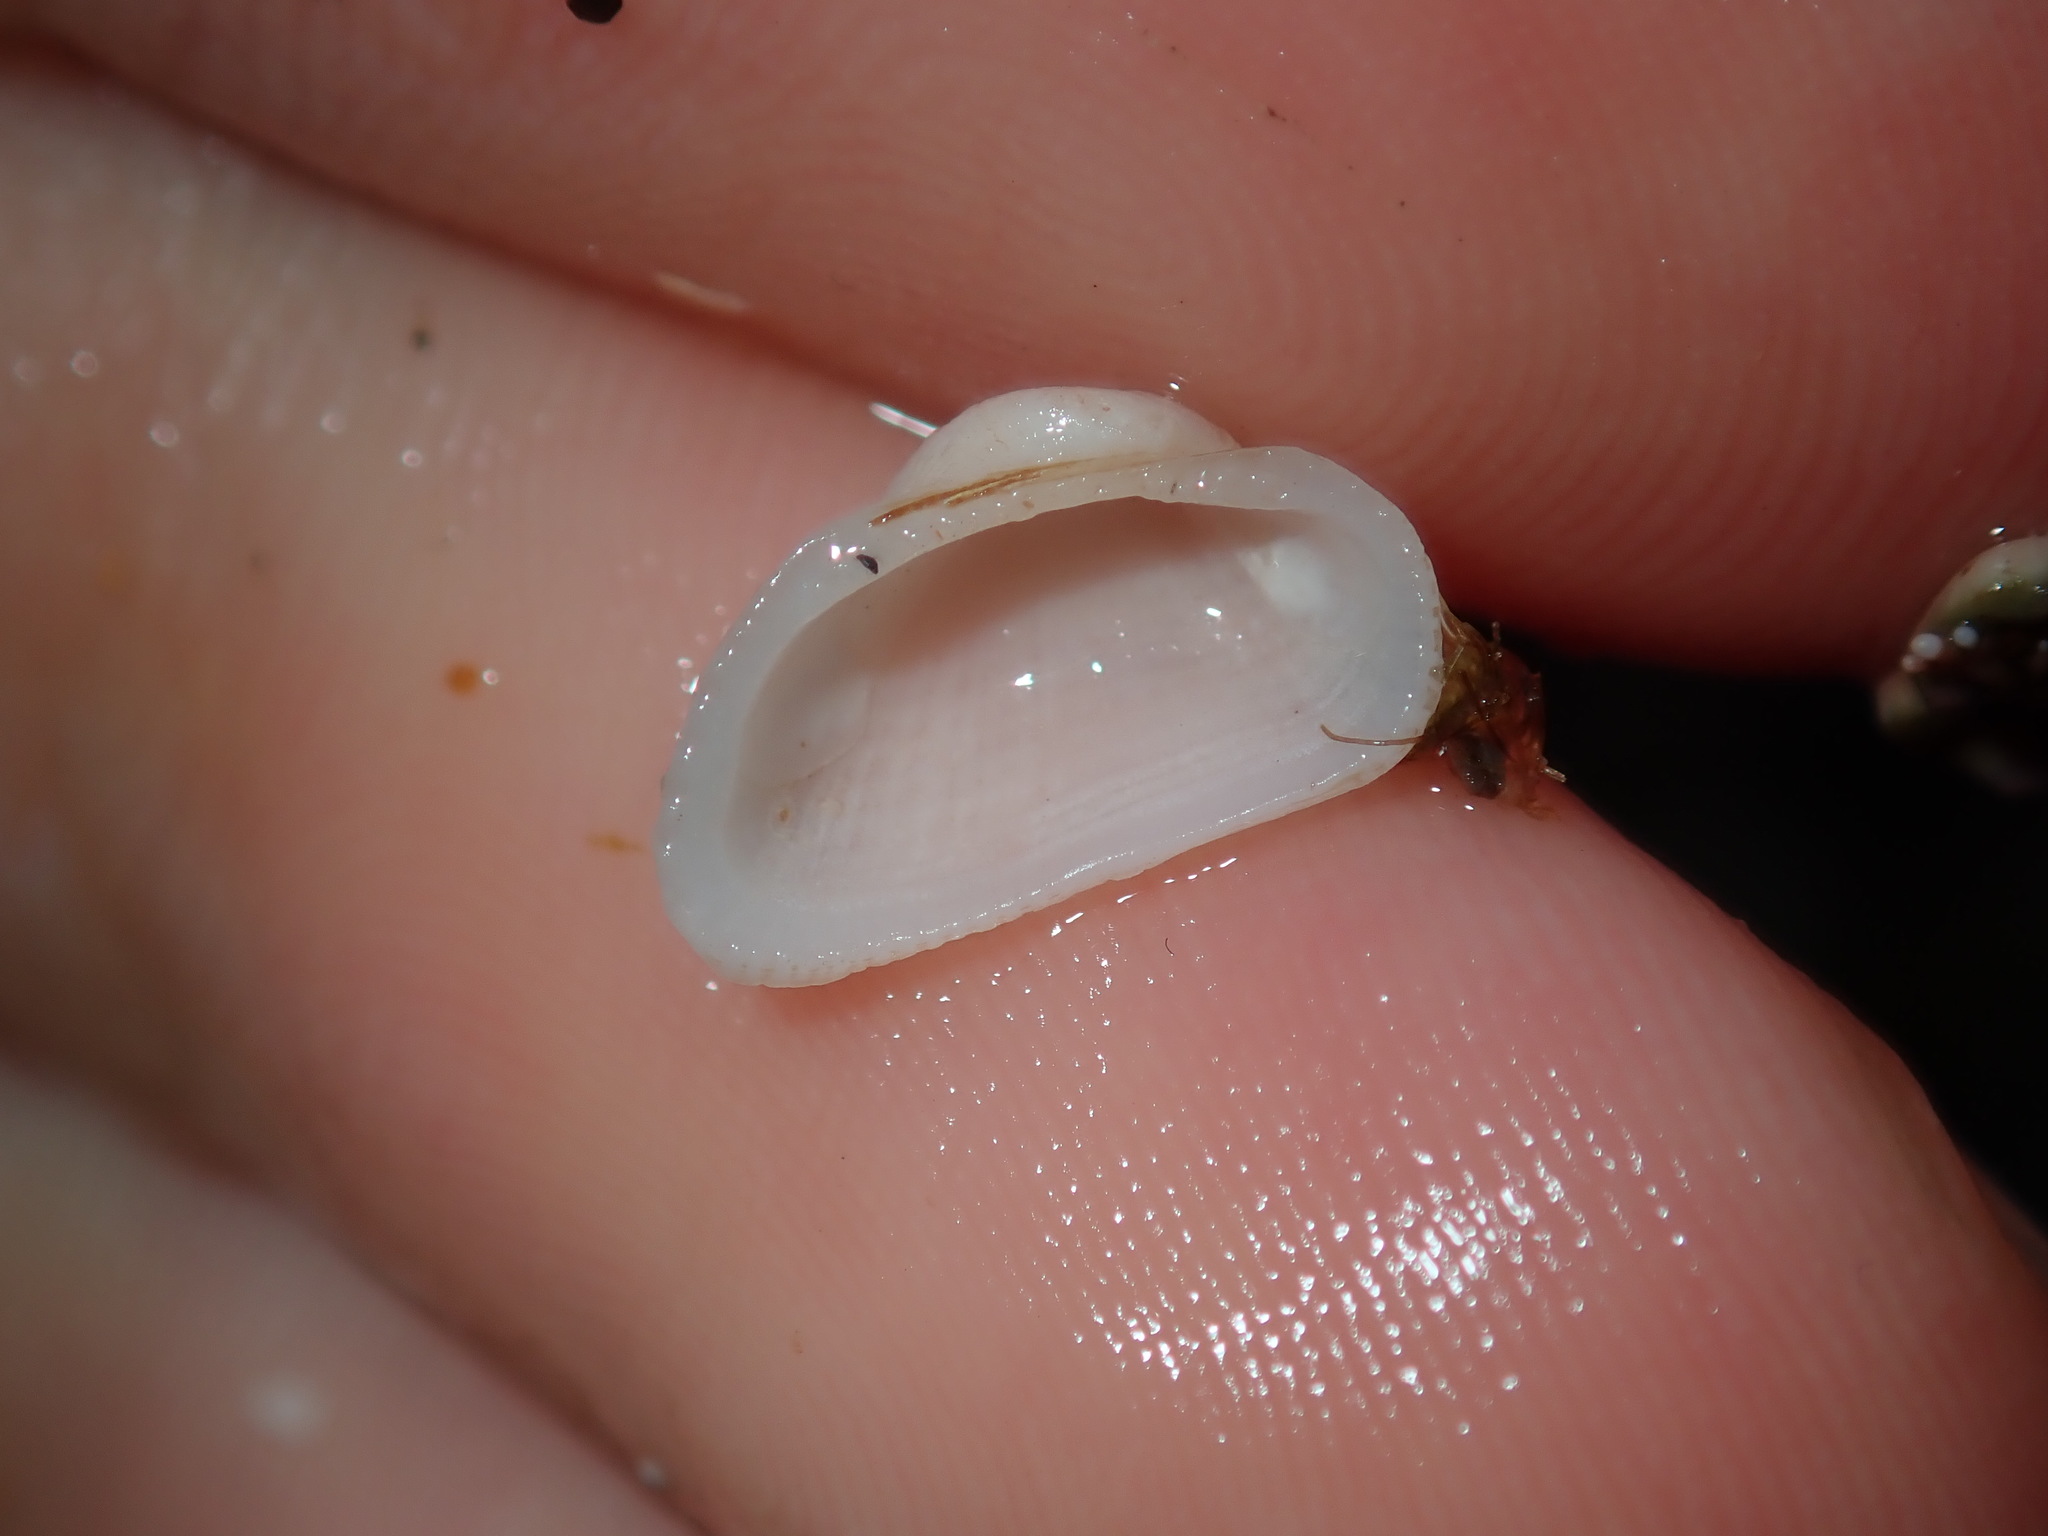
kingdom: Animalia
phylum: Mollusca
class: Bivalvia
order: Arcida
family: Arcidae
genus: Acar
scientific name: Acar botanica
